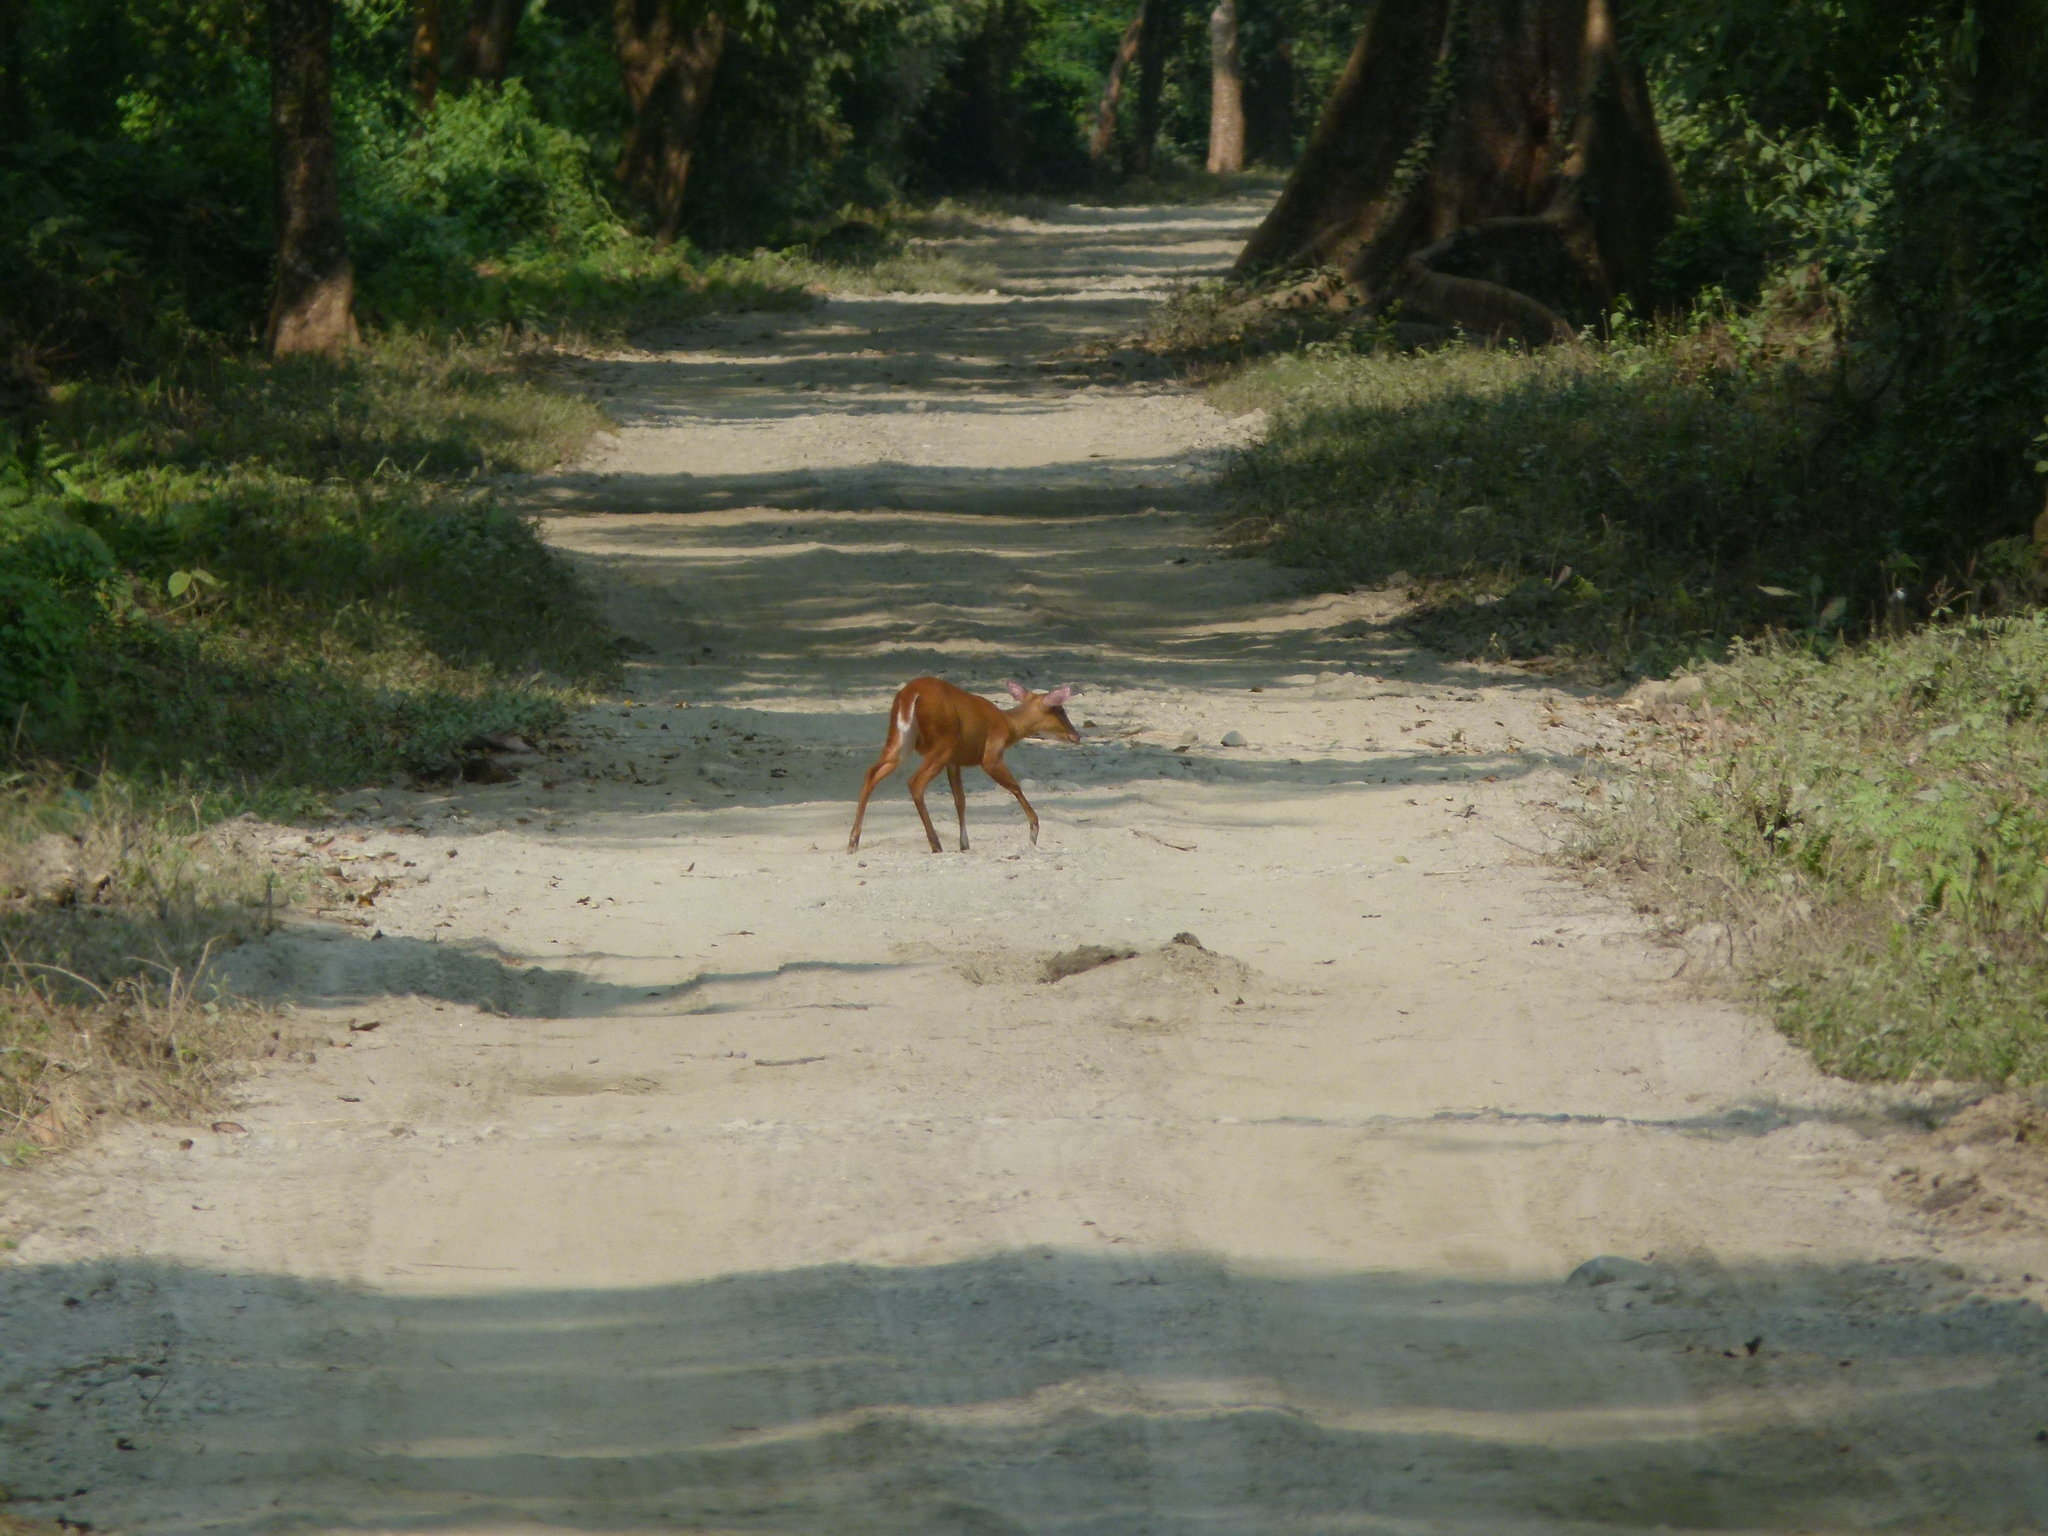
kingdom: Animalia
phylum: Chordata
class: Mammalia
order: Artiodactyla
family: Cervidae
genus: Muntiacus
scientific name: Muntiacus muntjak
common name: Indian muntjac
